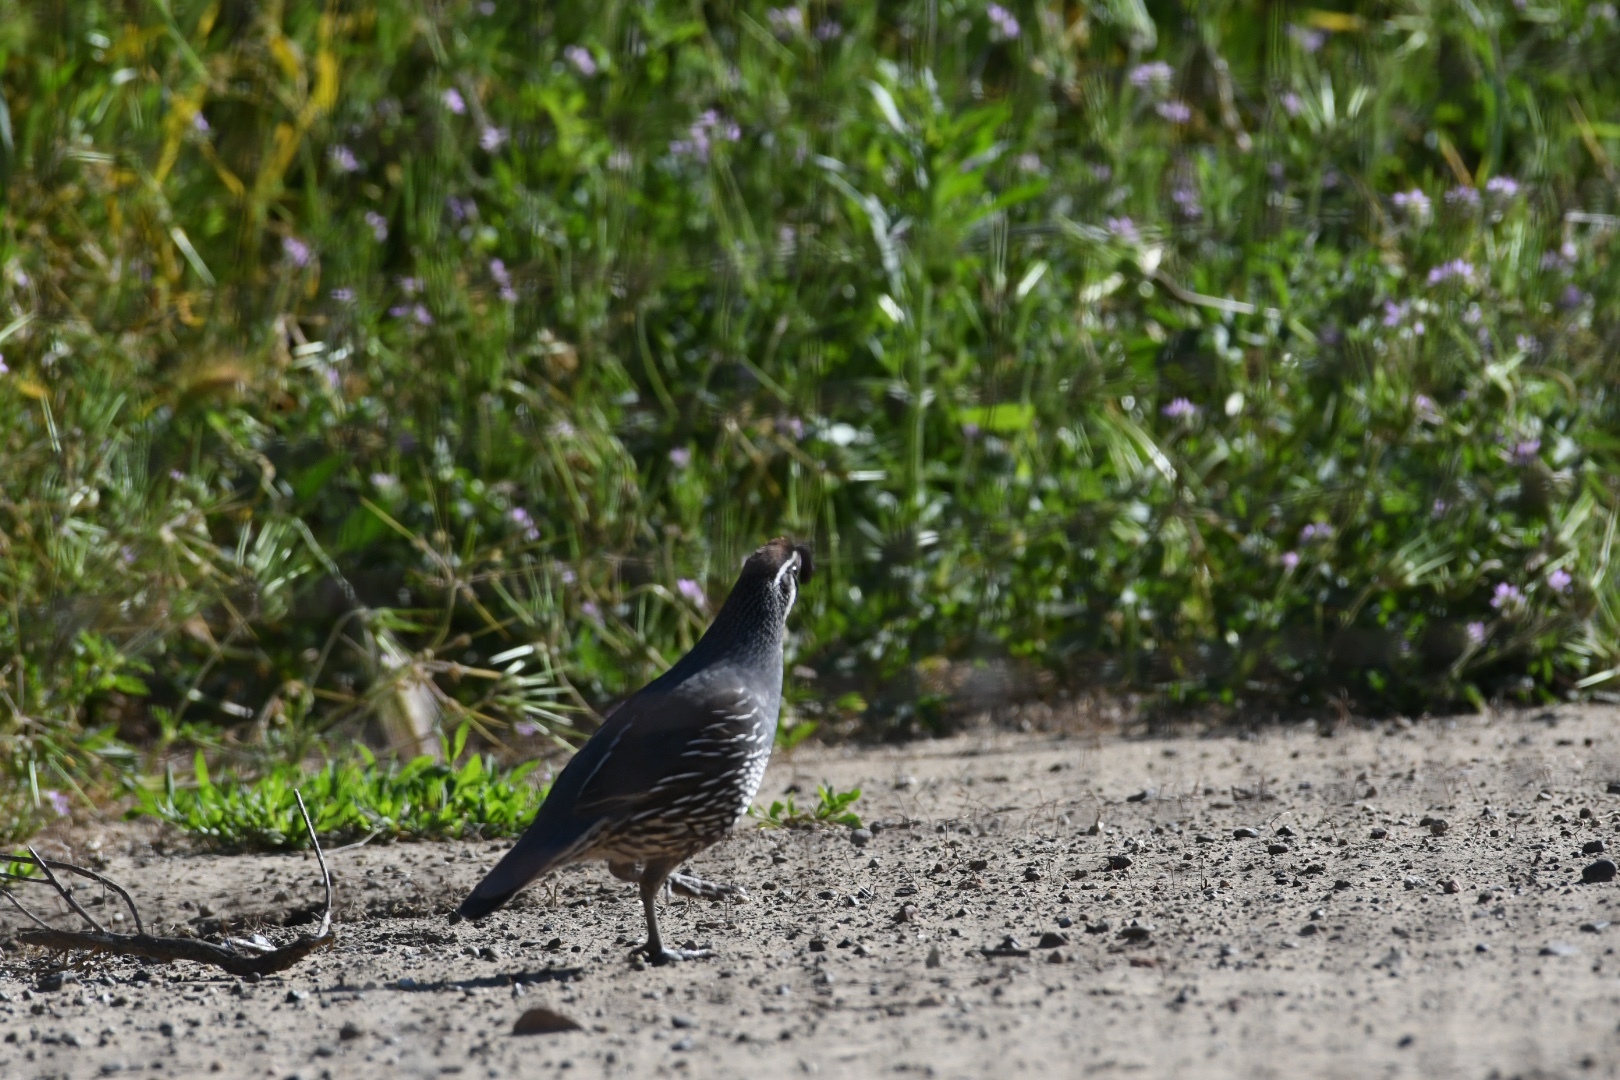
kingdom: Animalia
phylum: Chordata
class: Aves
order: Galliformes
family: Odontophoridae
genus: Callipepla
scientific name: Callipepla californica
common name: California quail
